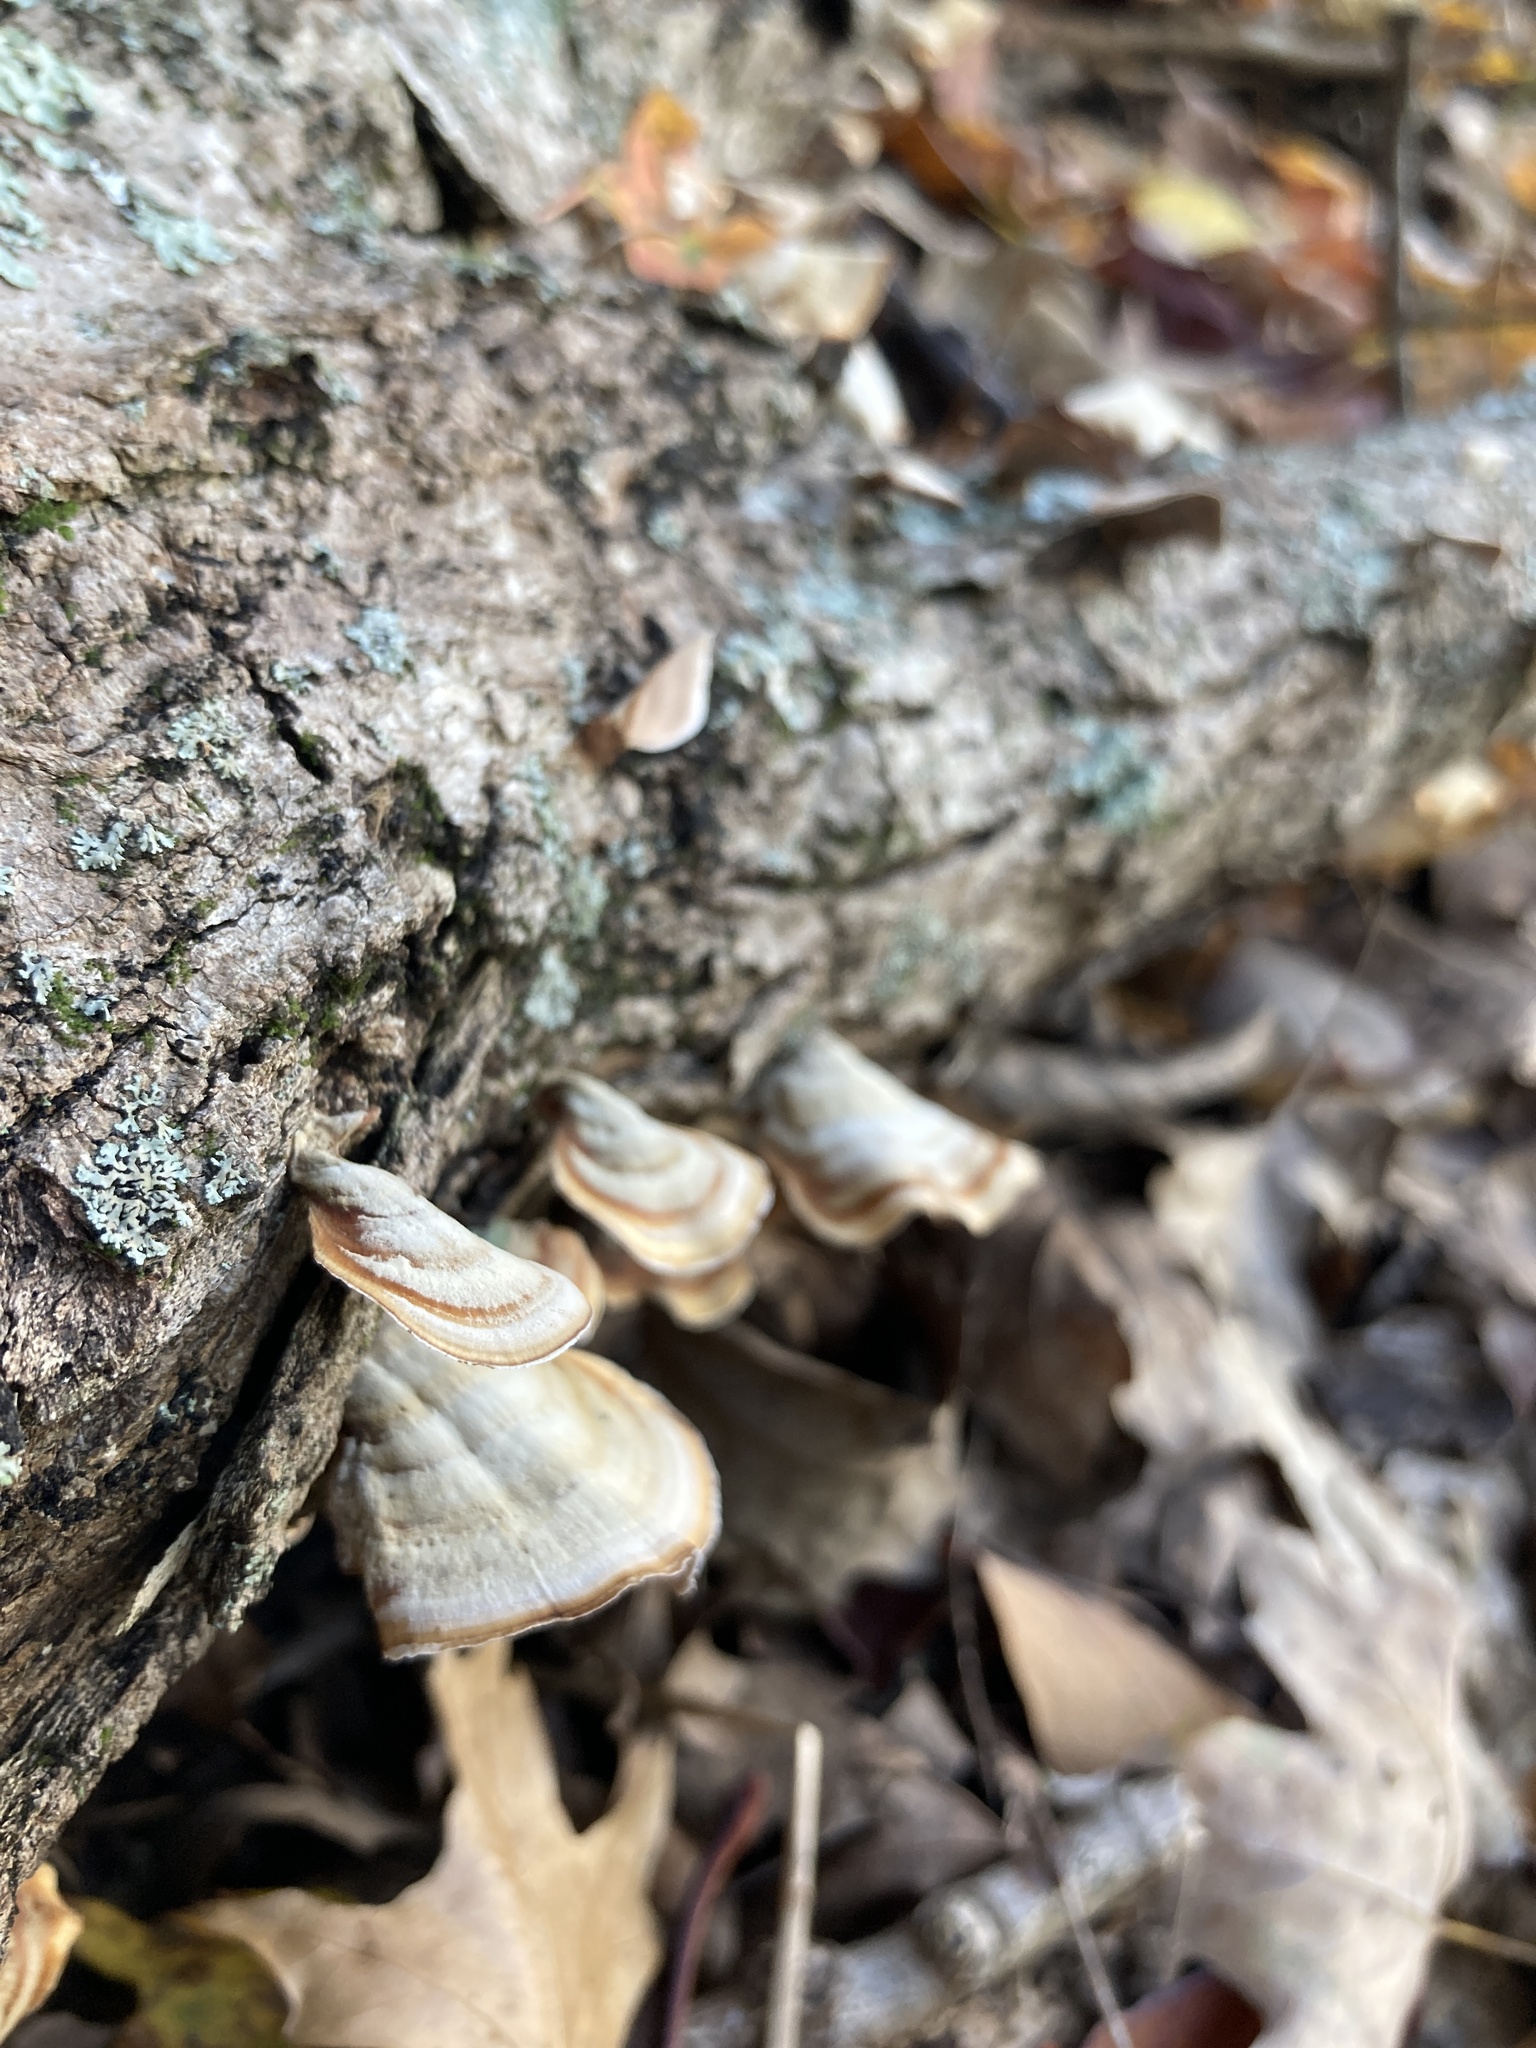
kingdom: Fungi
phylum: Basidiomycota
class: Agaricomycetes
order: Russulales
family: Stereaceae
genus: Stereum
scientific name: Stereum lobatum
